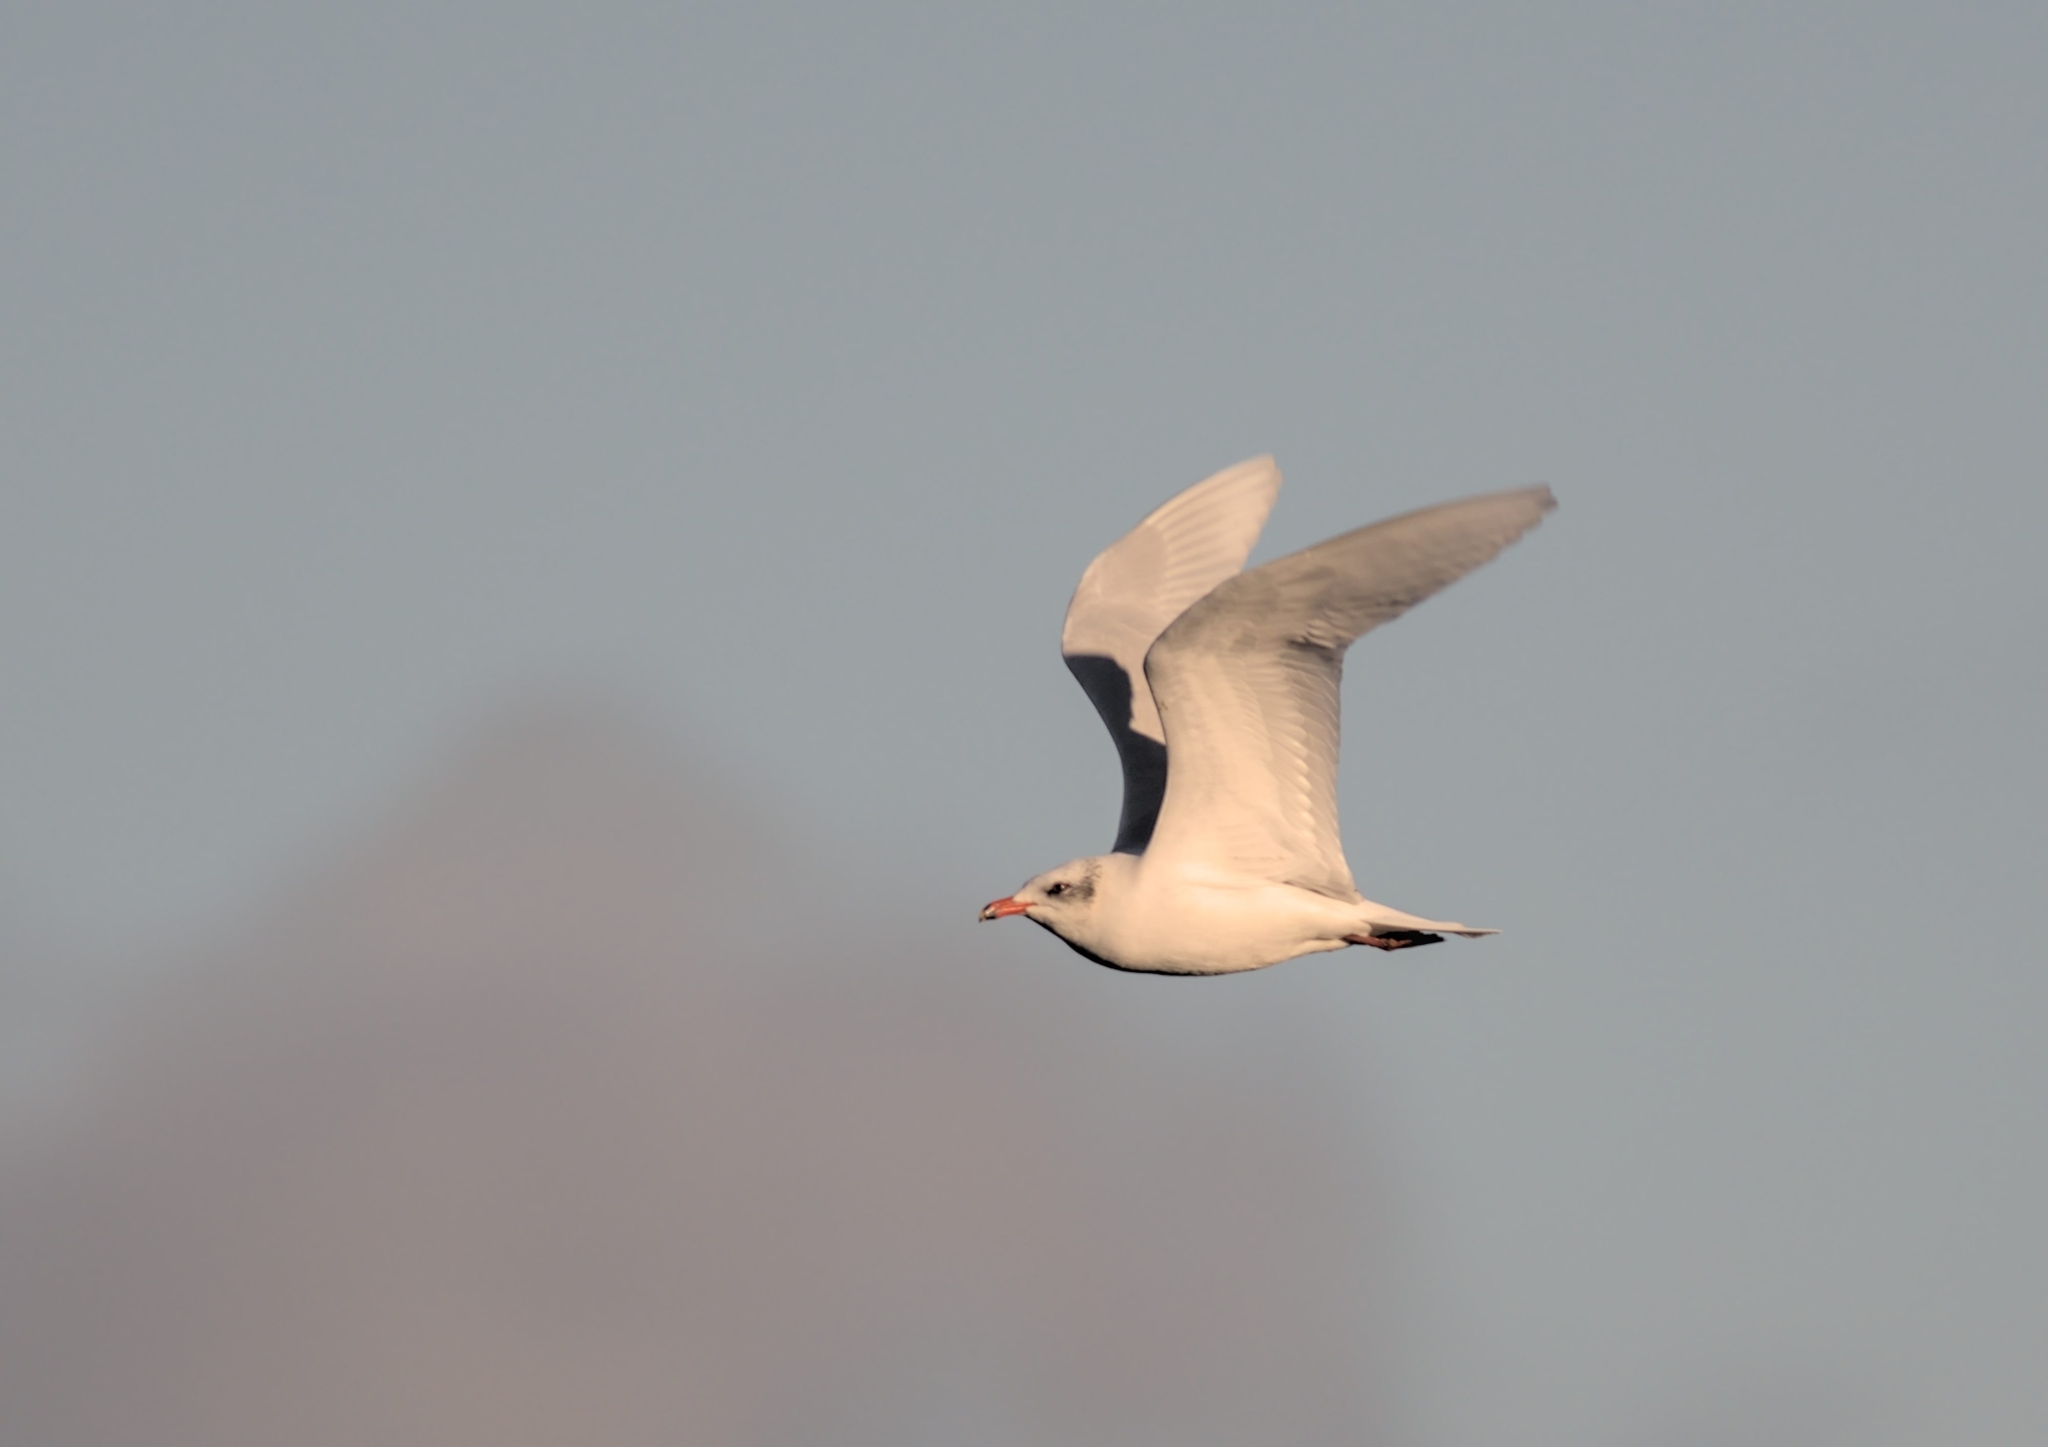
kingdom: Animalia
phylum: Chordata
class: Aves
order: Charadriiformes
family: Laridae
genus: Ichthyaetus
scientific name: Ichthyaetus melanocephalus
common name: Mediterranean gull
